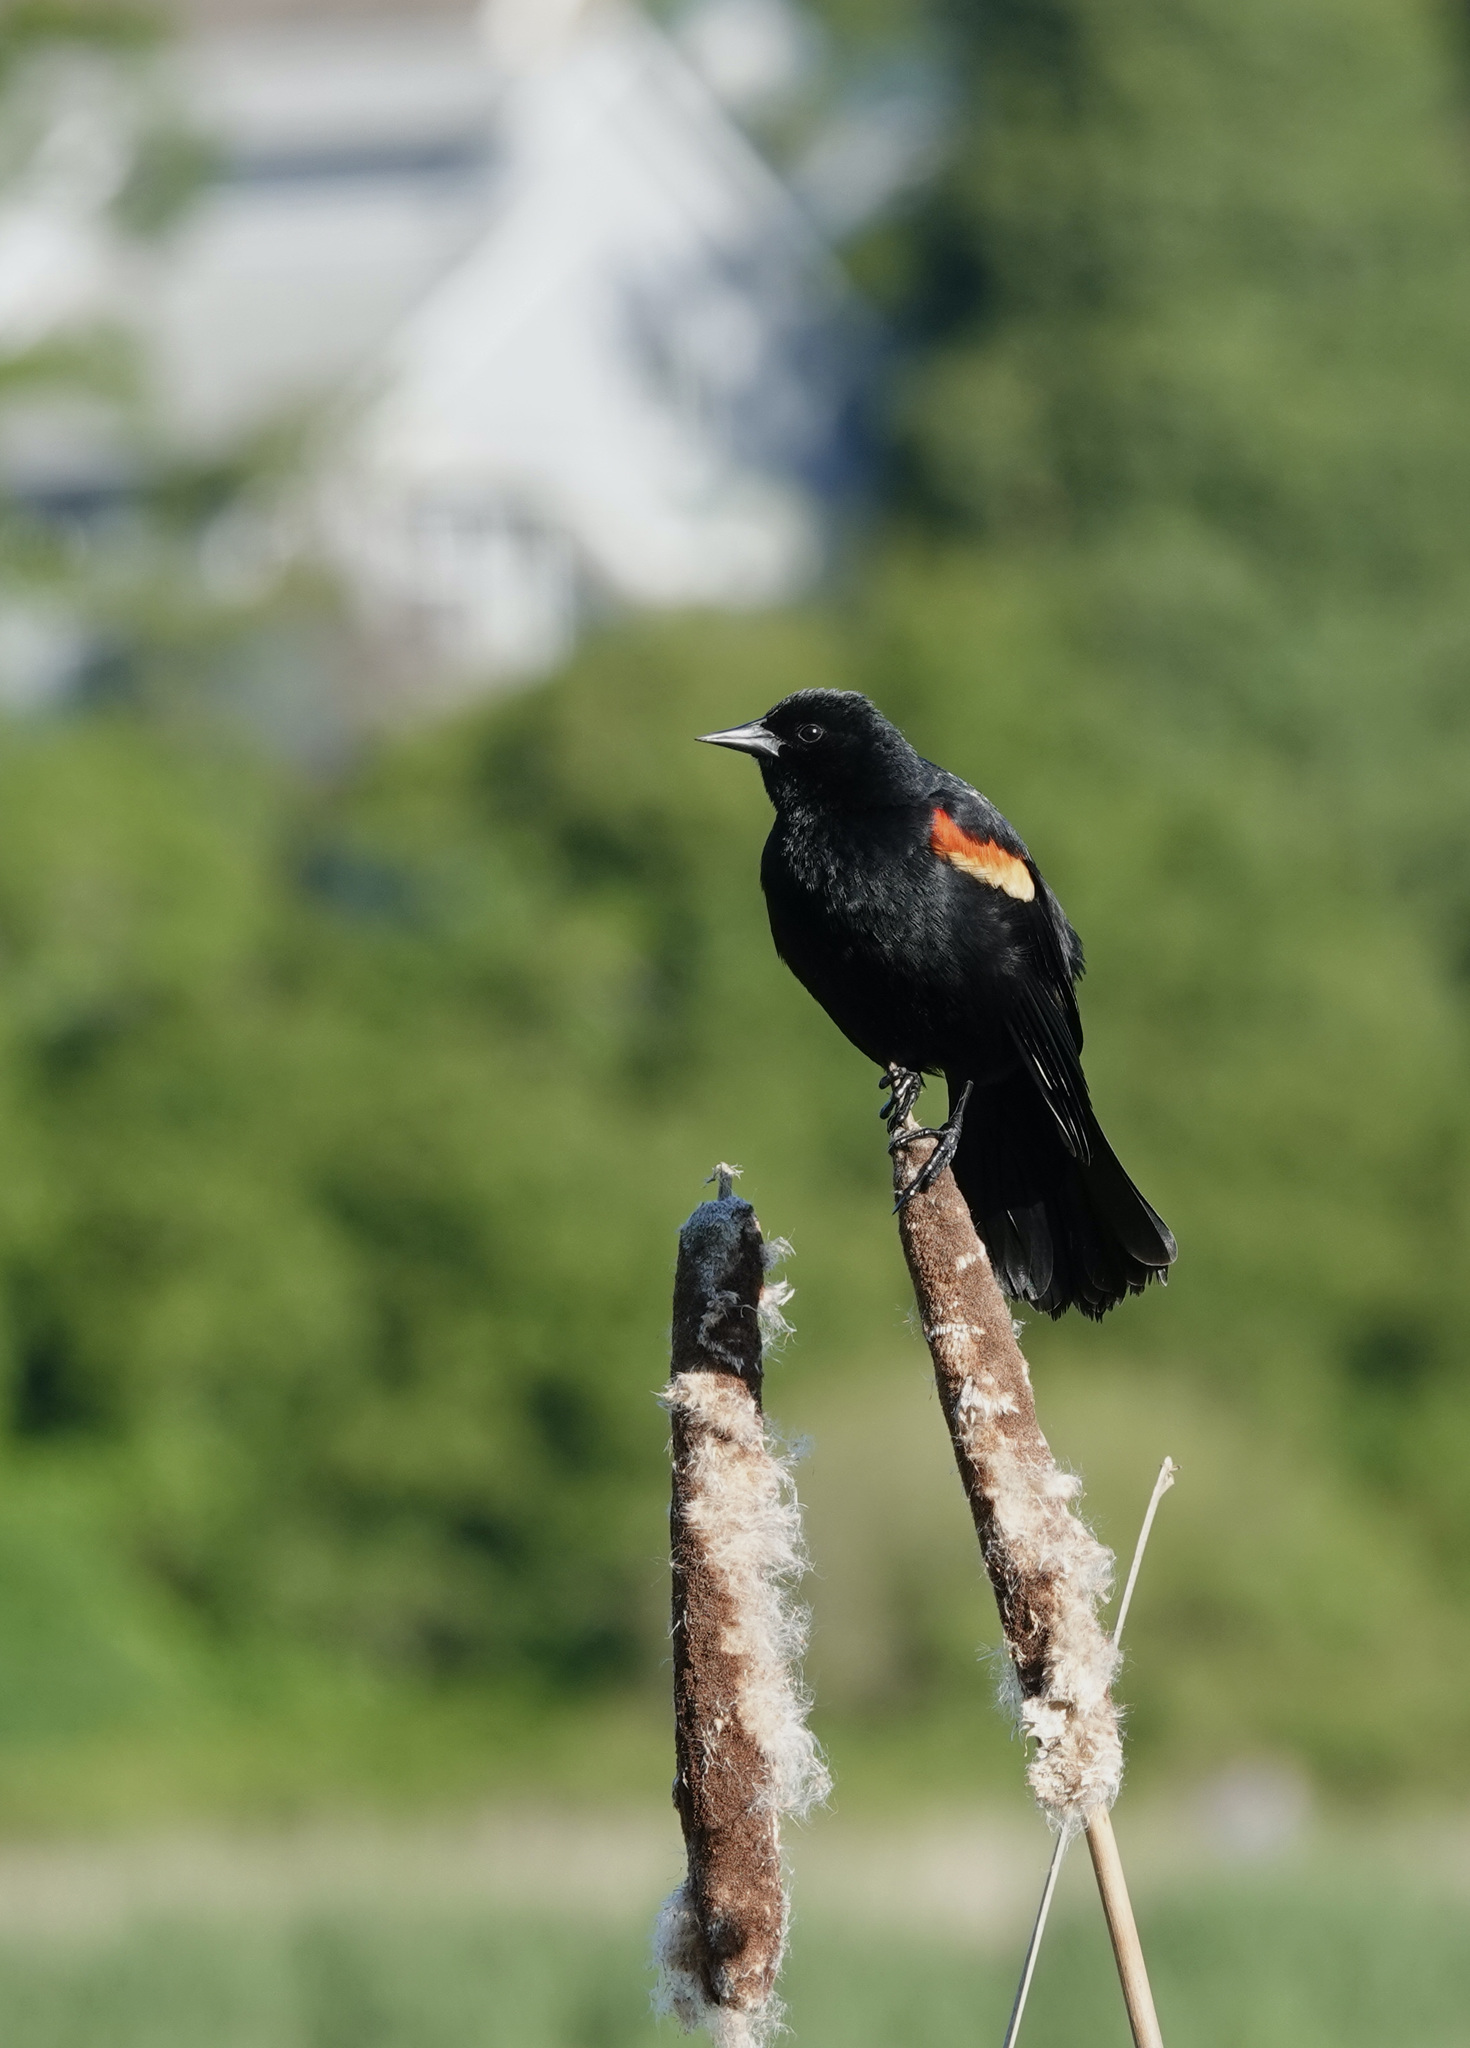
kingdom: Animalia
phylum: Chordata
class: Aves
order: Passeriformes
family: Icteridae
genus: Agelaius
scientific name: Agelaius phoeniceus
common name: Red-winged blackbird
